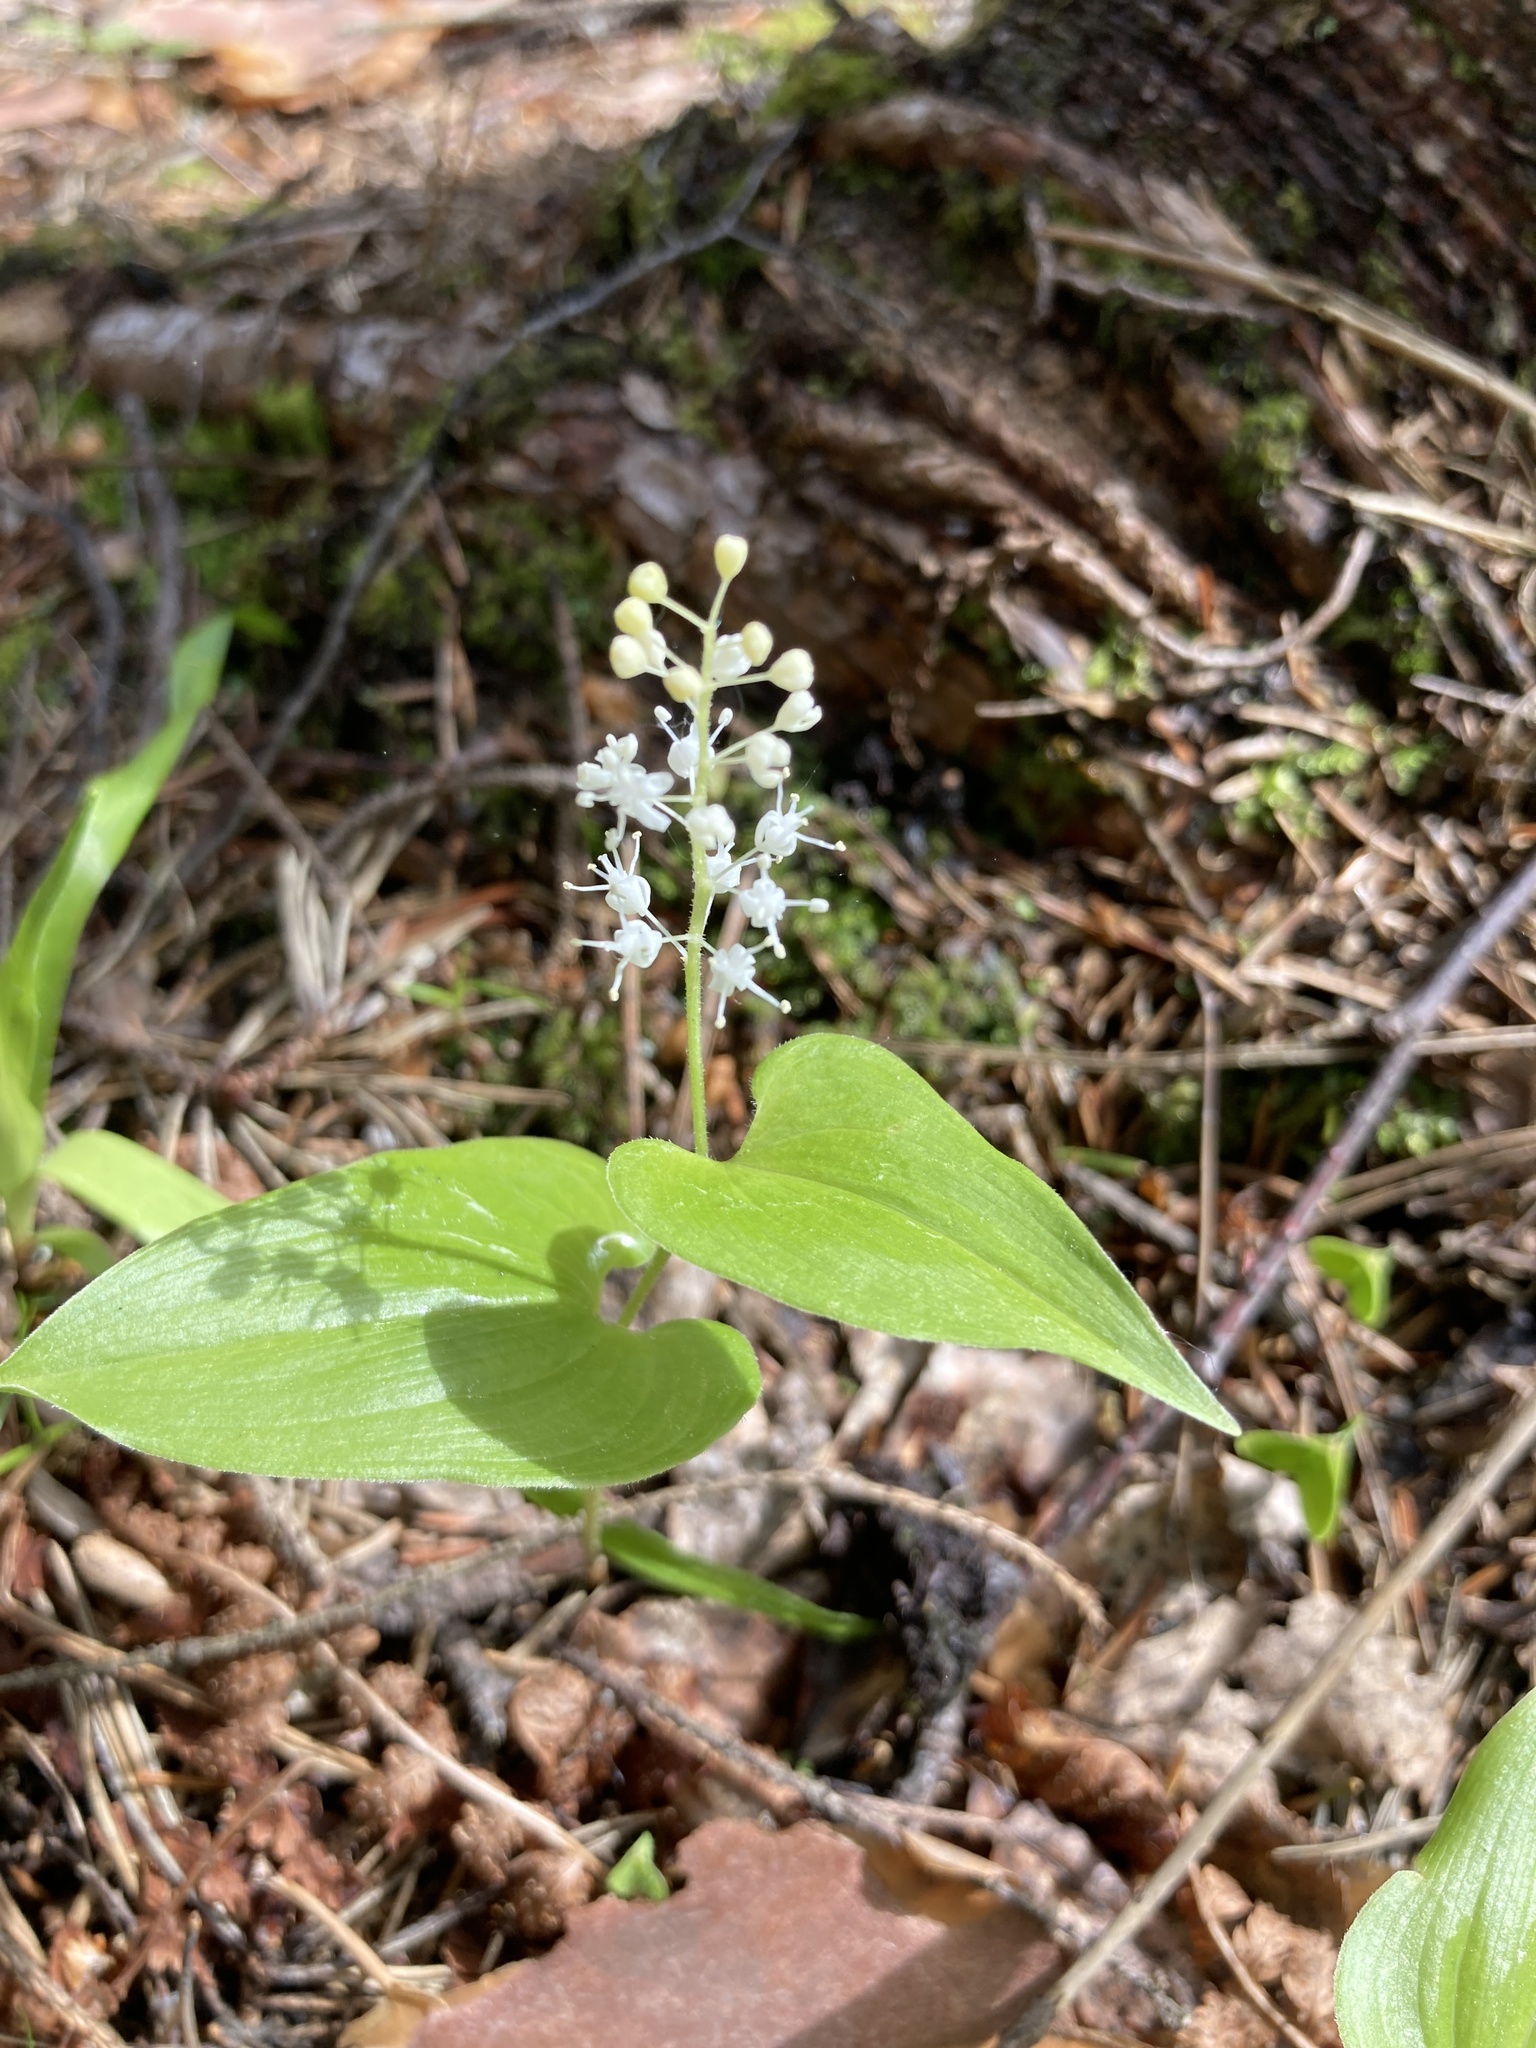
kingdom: Plantae
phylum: Tracheophyta
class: Liliopsida
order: Asparagales
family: Asparagaceae
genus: Maianthemum
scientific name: Maianthemum bifolium
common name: May lily
